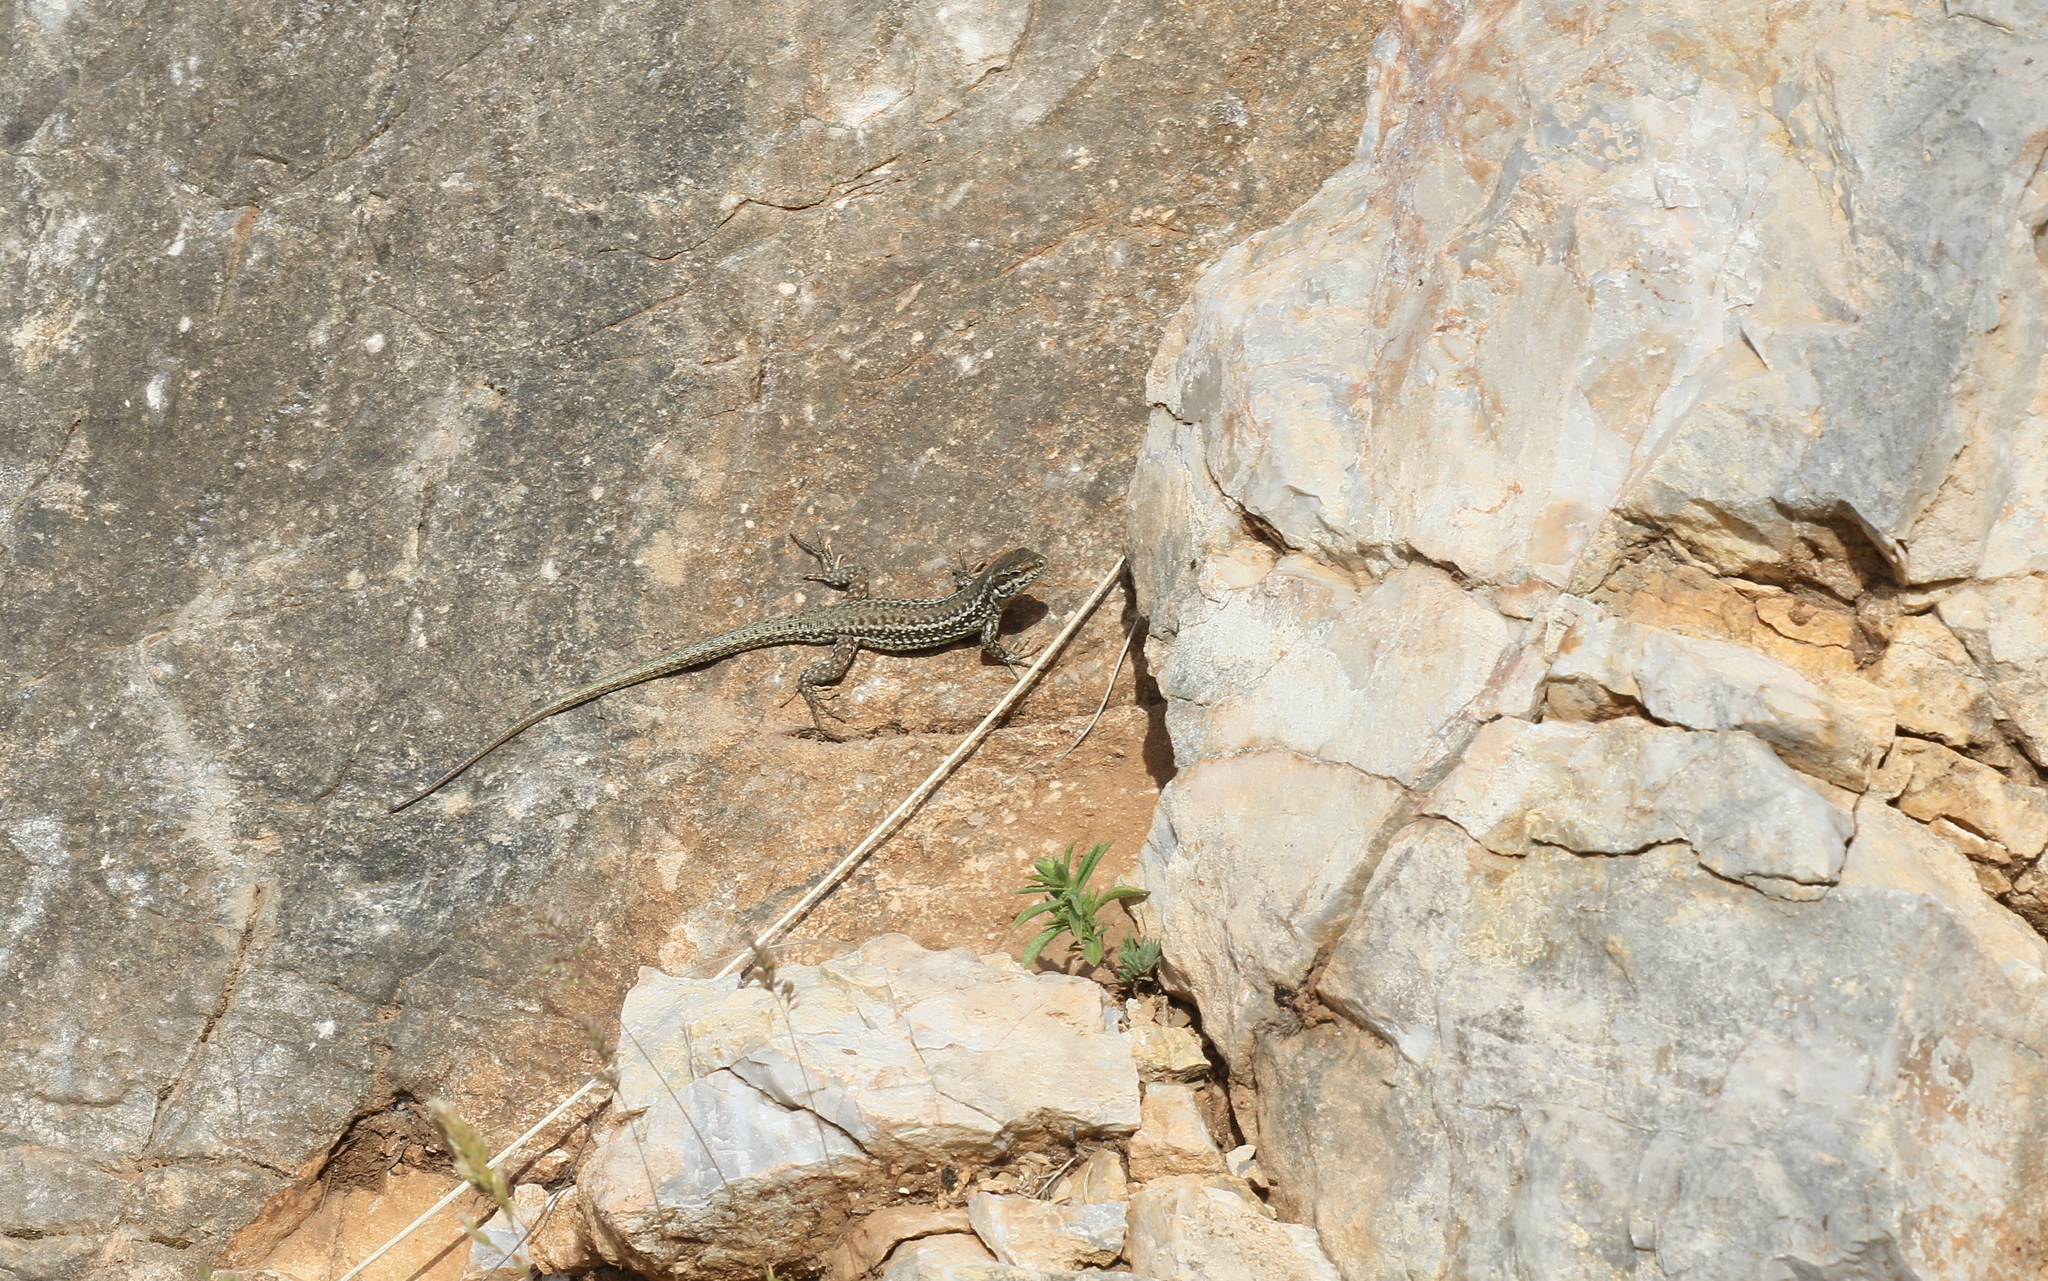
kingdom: Animalia
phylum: Chordata
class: Squamata
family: Lacertidae
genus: Podarcis
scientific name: Podarcis erhardii
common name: Erhard's wall lizard
